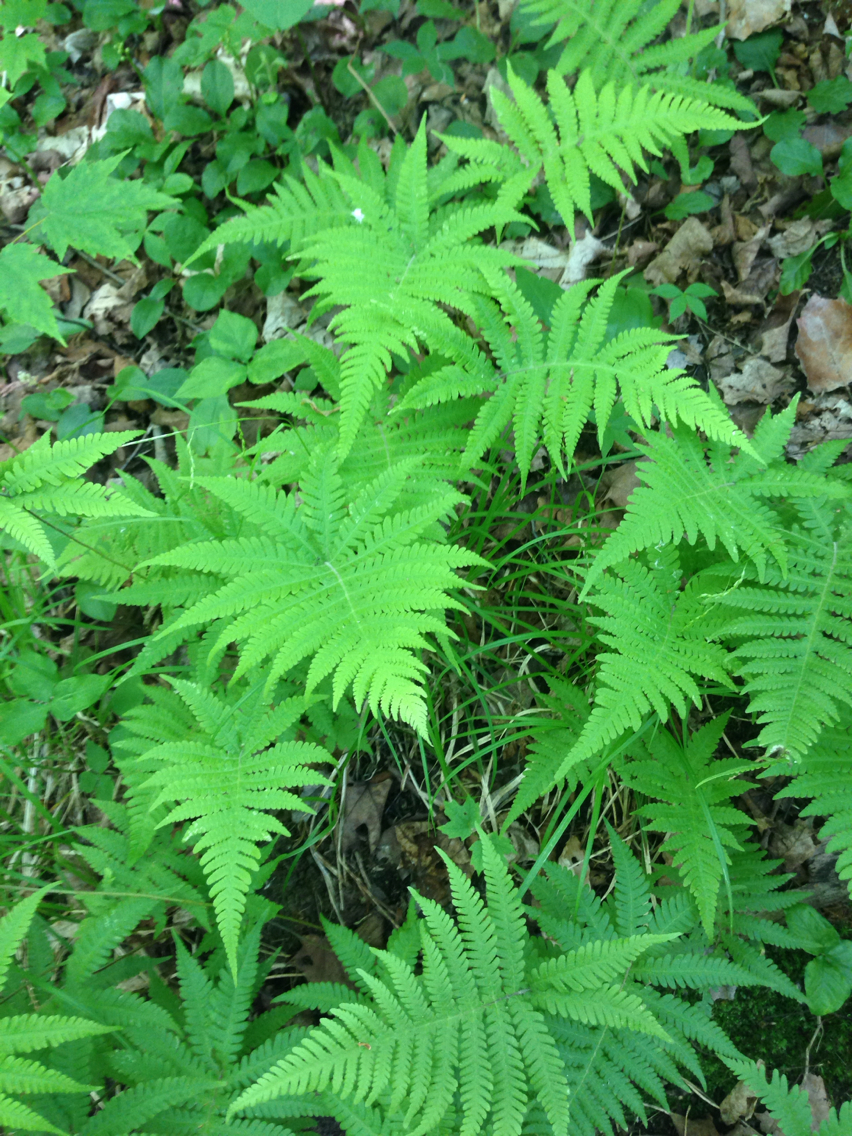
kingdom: Plantae
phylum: Tracheophyta
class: Polypodiopsida
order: Polypodiales
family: Thelypteridaceae
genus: Phegopteris
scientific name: Phegopteris connectilis
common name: Beech fern
